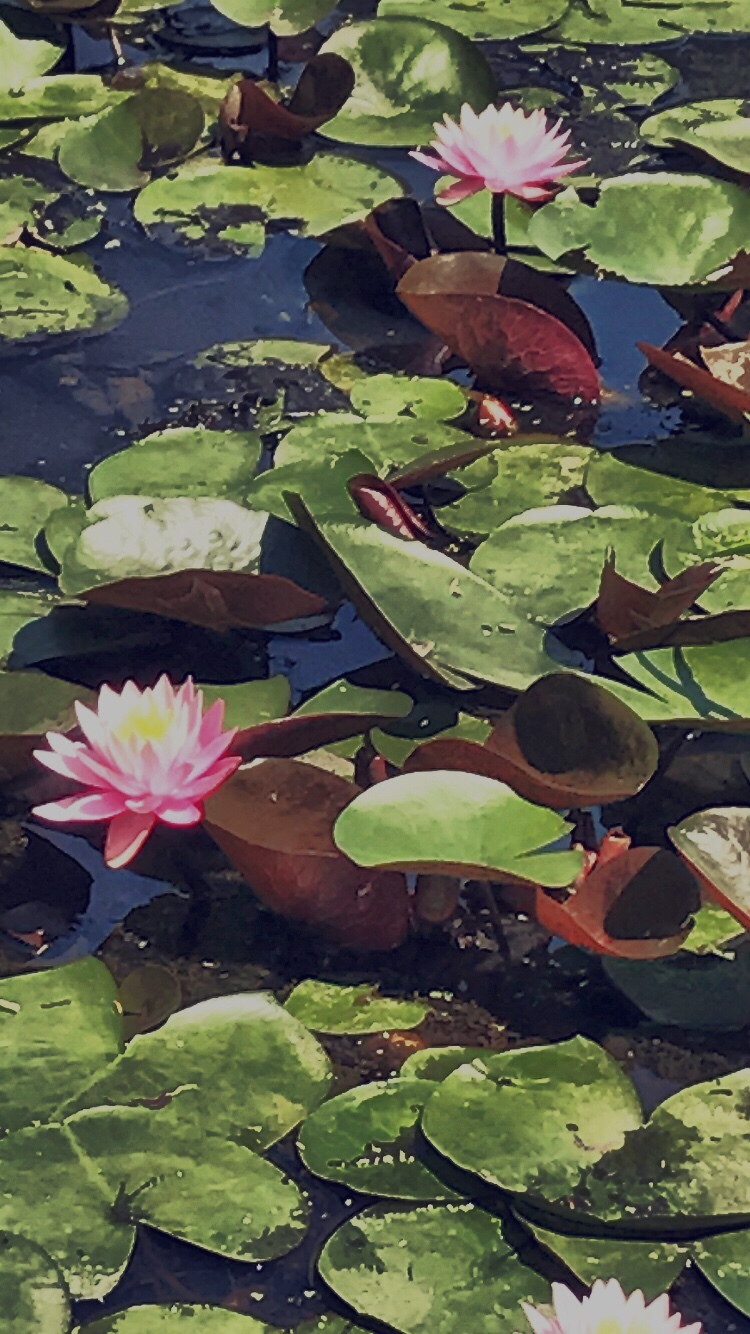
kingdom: Plantae
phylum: Tracheophyta
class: Magnoliopsida
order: Nymphaeales
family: Nymphaeaceae
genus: Nymphaea
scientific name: Nymphaea odorata
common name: Fragrant water-lily
